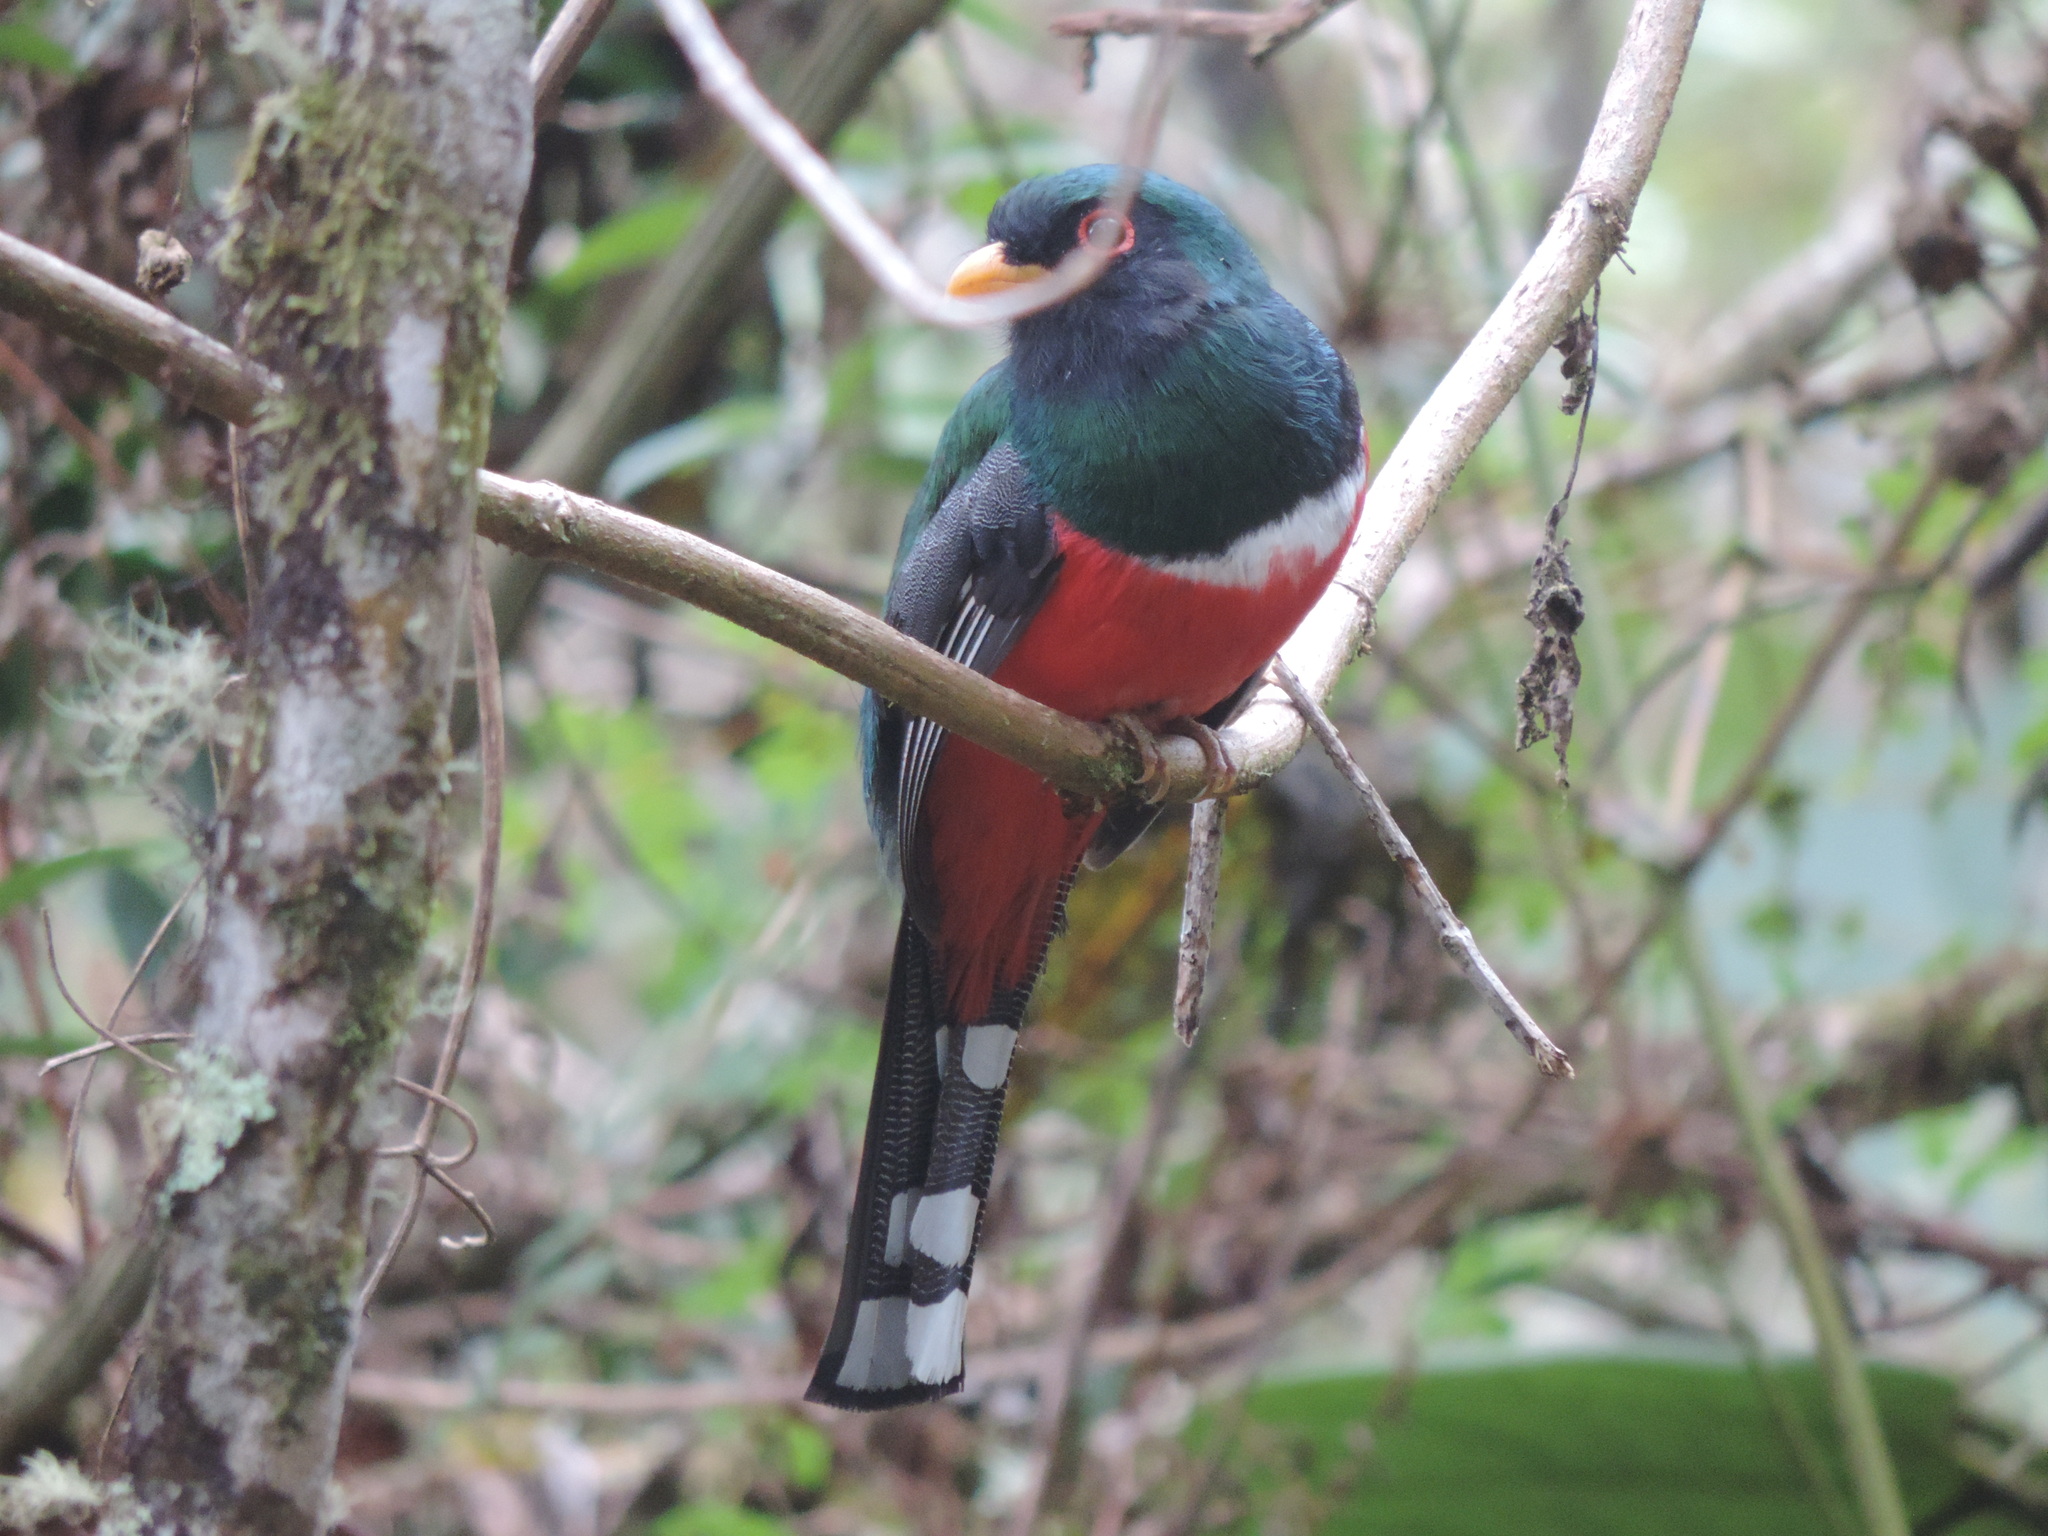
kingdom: Animalia
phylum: Chordata
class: Aves
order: Trogoniformes
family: Trogonidae
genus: Trogon
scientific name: Trogon personatus
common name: Masked trogon
